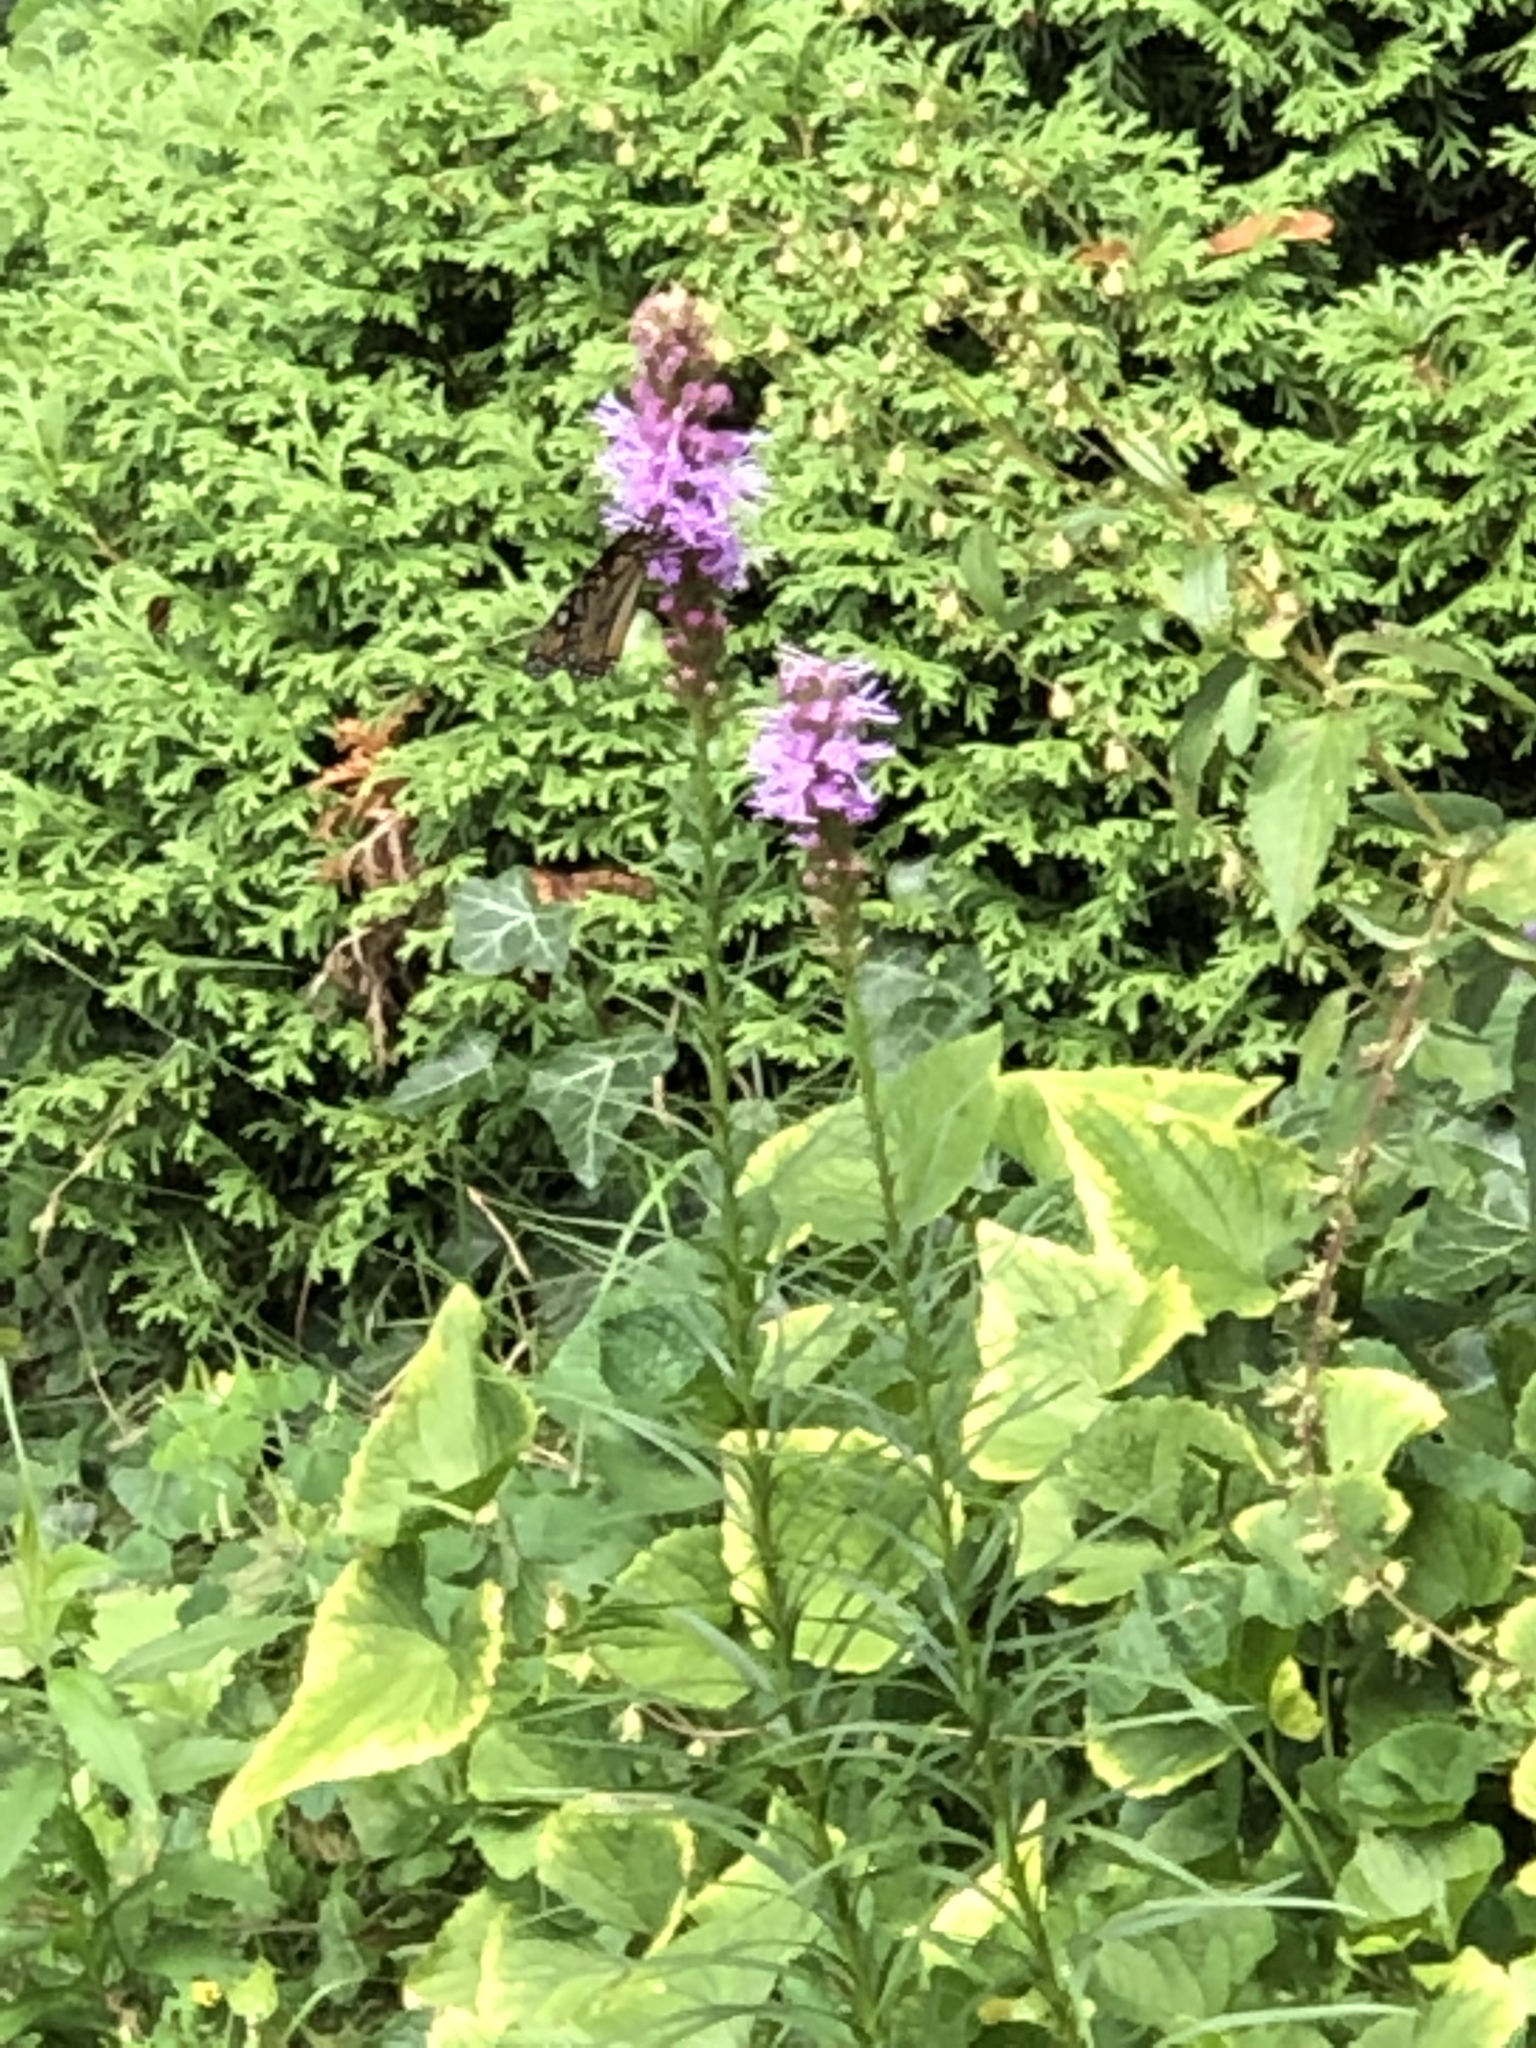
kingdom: Animalia
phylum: Arthropoda
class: Insecta
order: Lepidoptera
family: Nymphalidae
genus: Danaus
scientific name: Danaus plexippus
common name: Monarch
